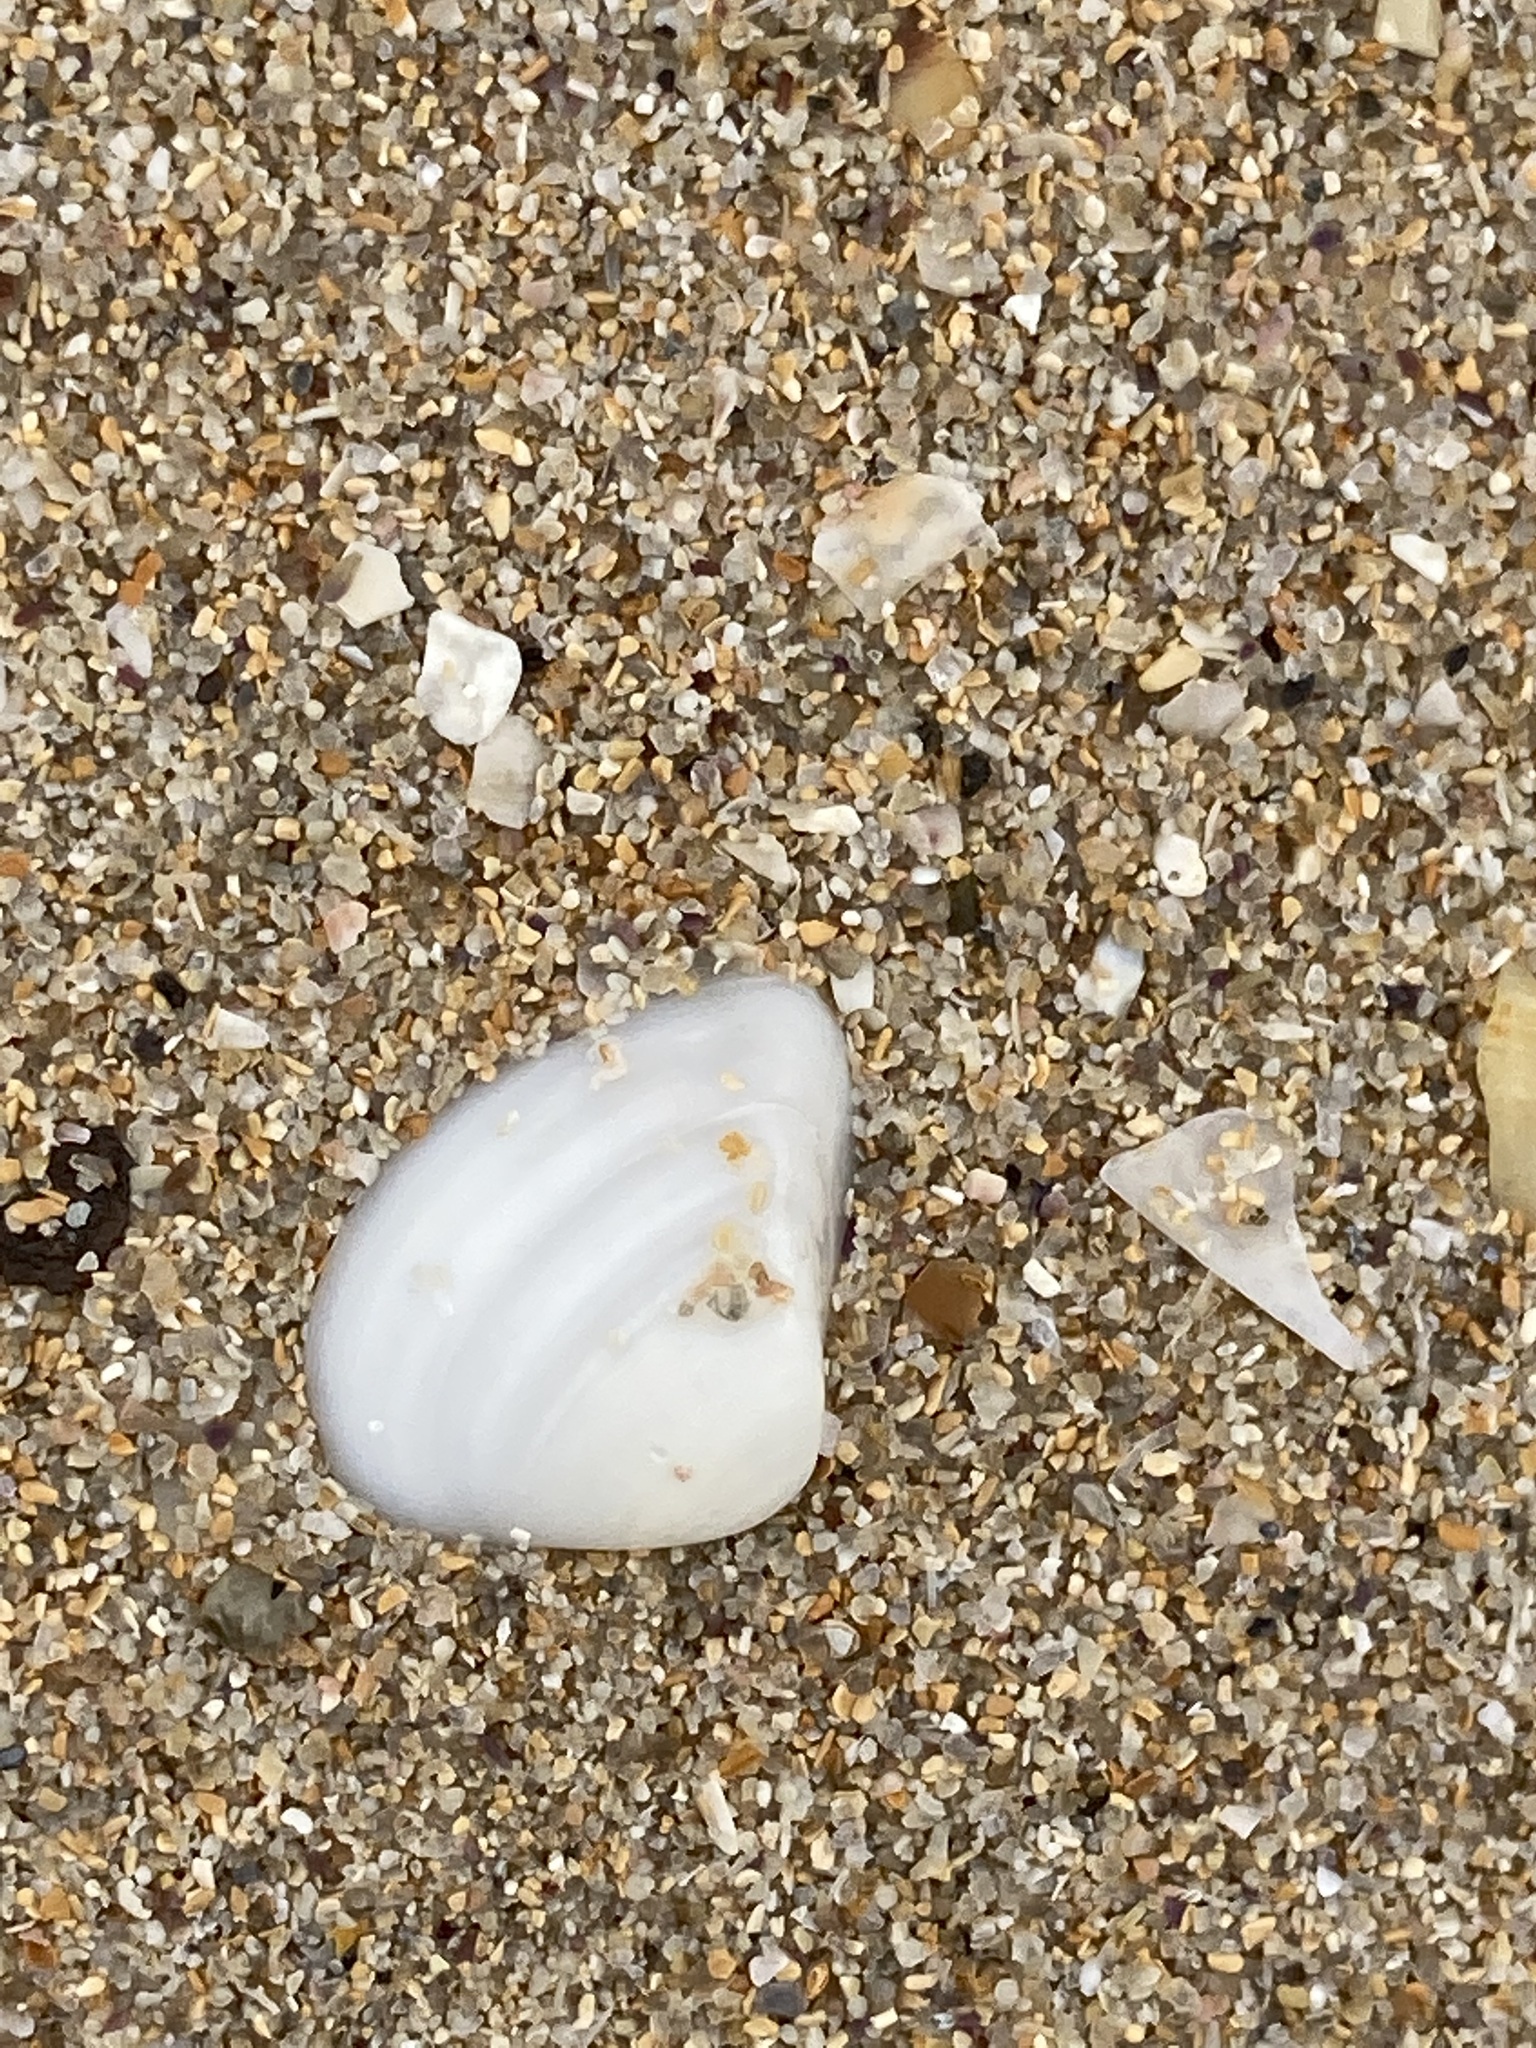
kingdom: Animalia
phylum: Mollusca
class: Bivalvia
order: Venerida
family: Mactridae
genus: Spisula
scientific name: Spisula trigonella
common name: Trigonal mactra
